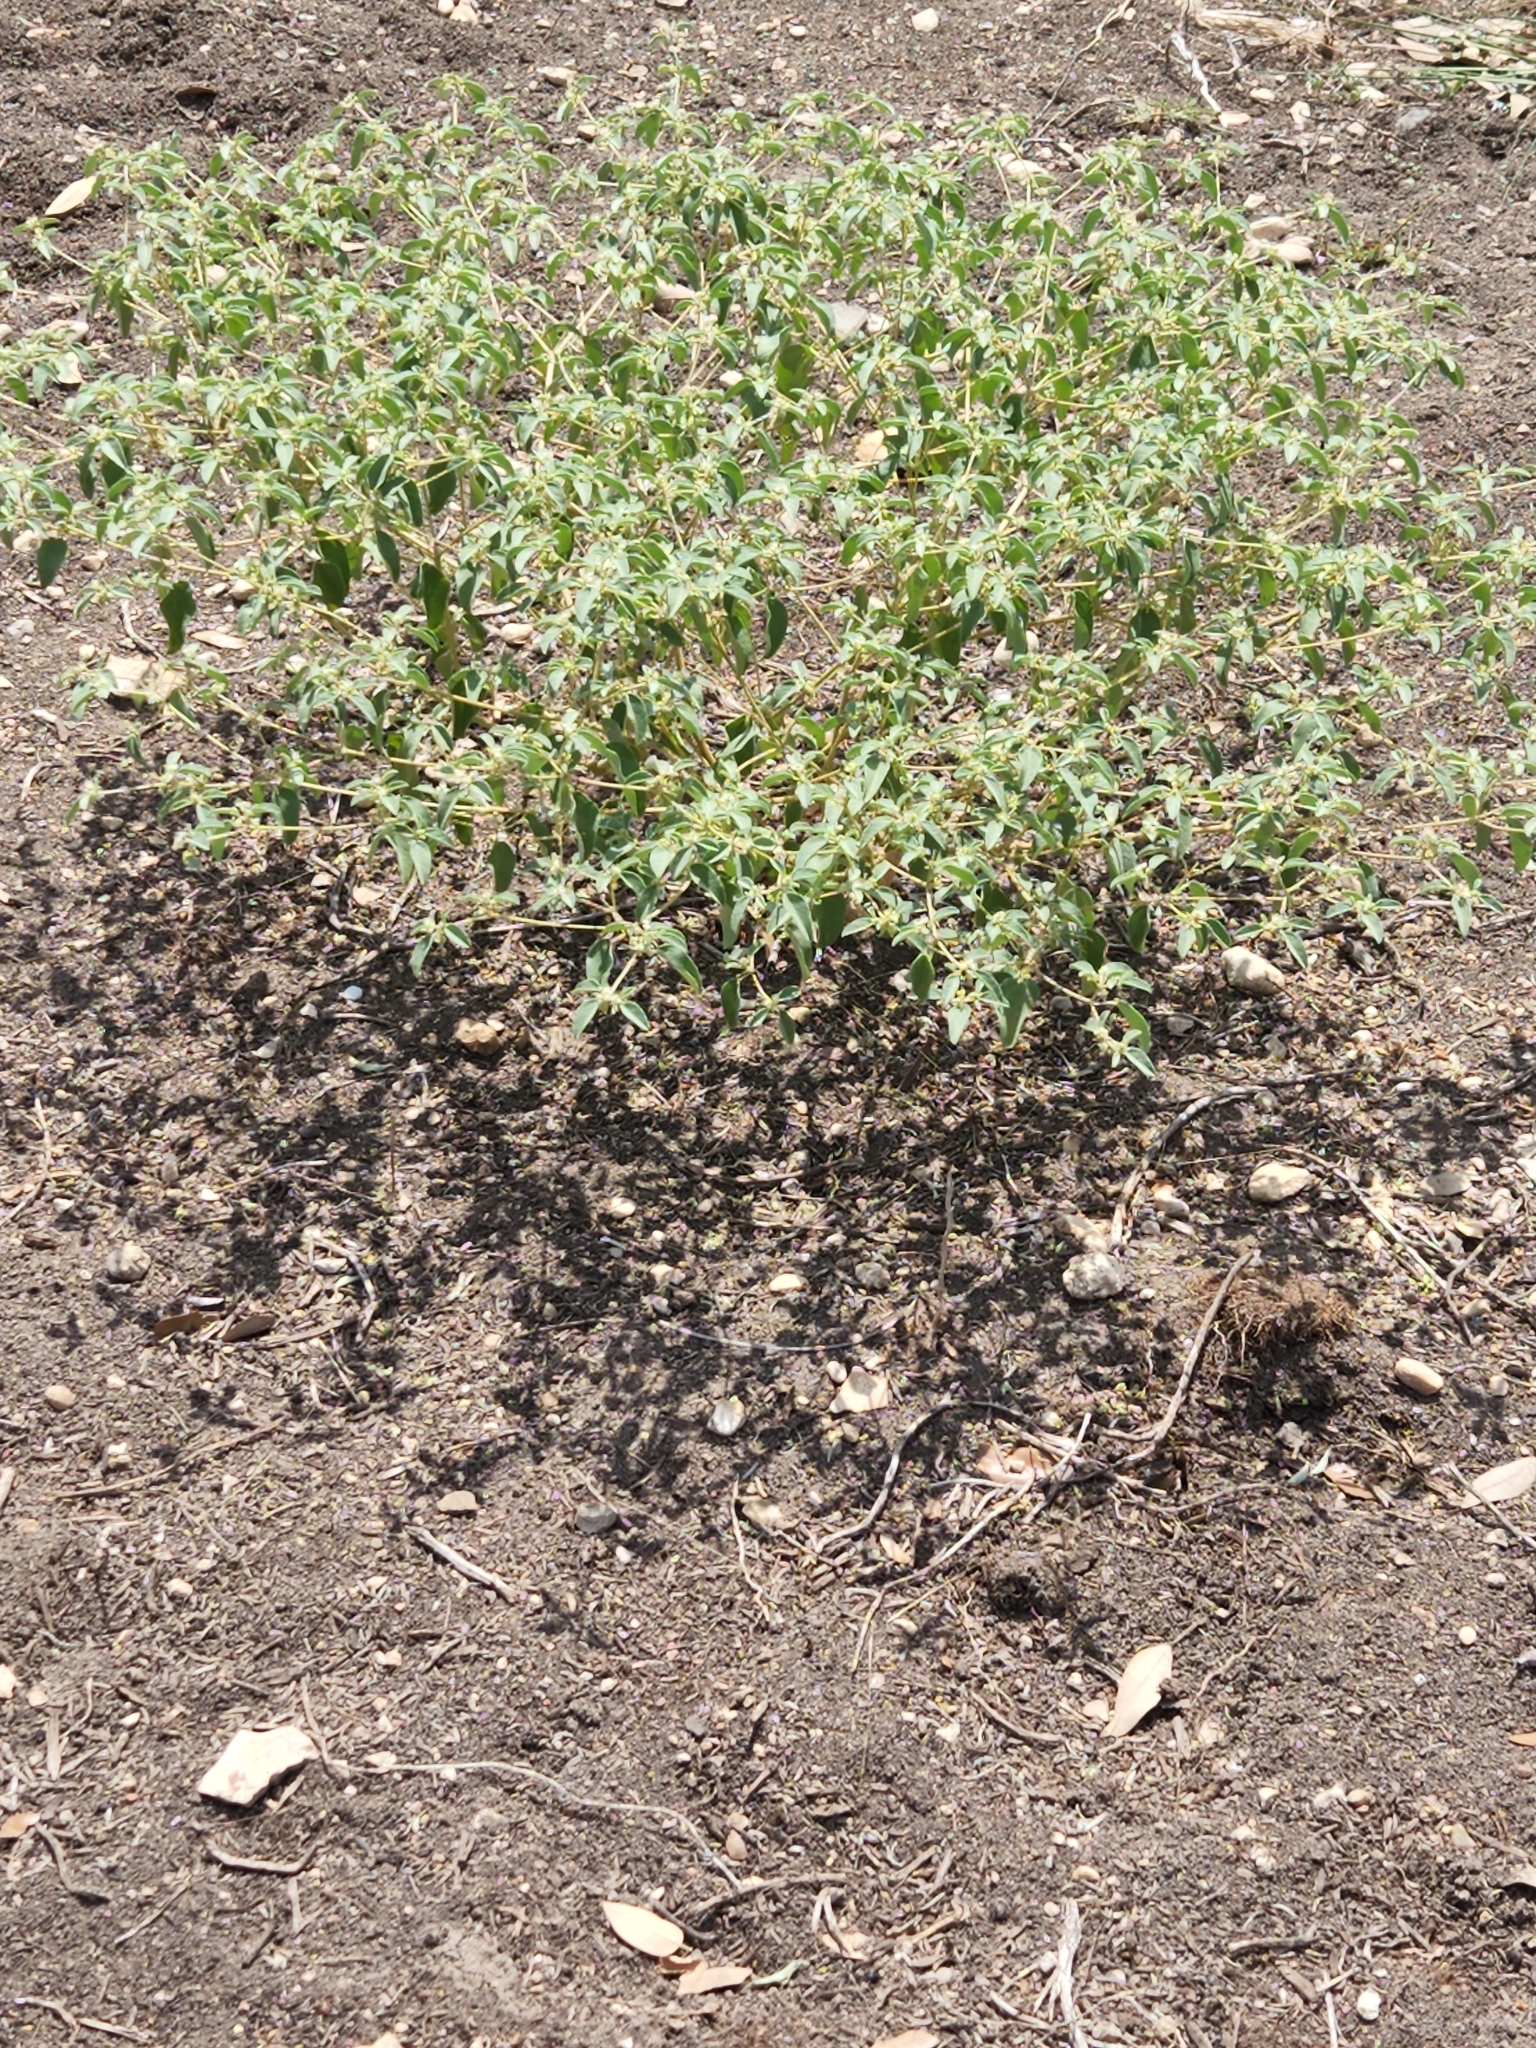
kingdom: Plantae
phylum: Tracheophyta
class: Magnoliopsida
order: Malpighiales
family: Euphorbiaceae
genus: Croton
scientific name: Croton monanthogynus
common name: One-seed croton
